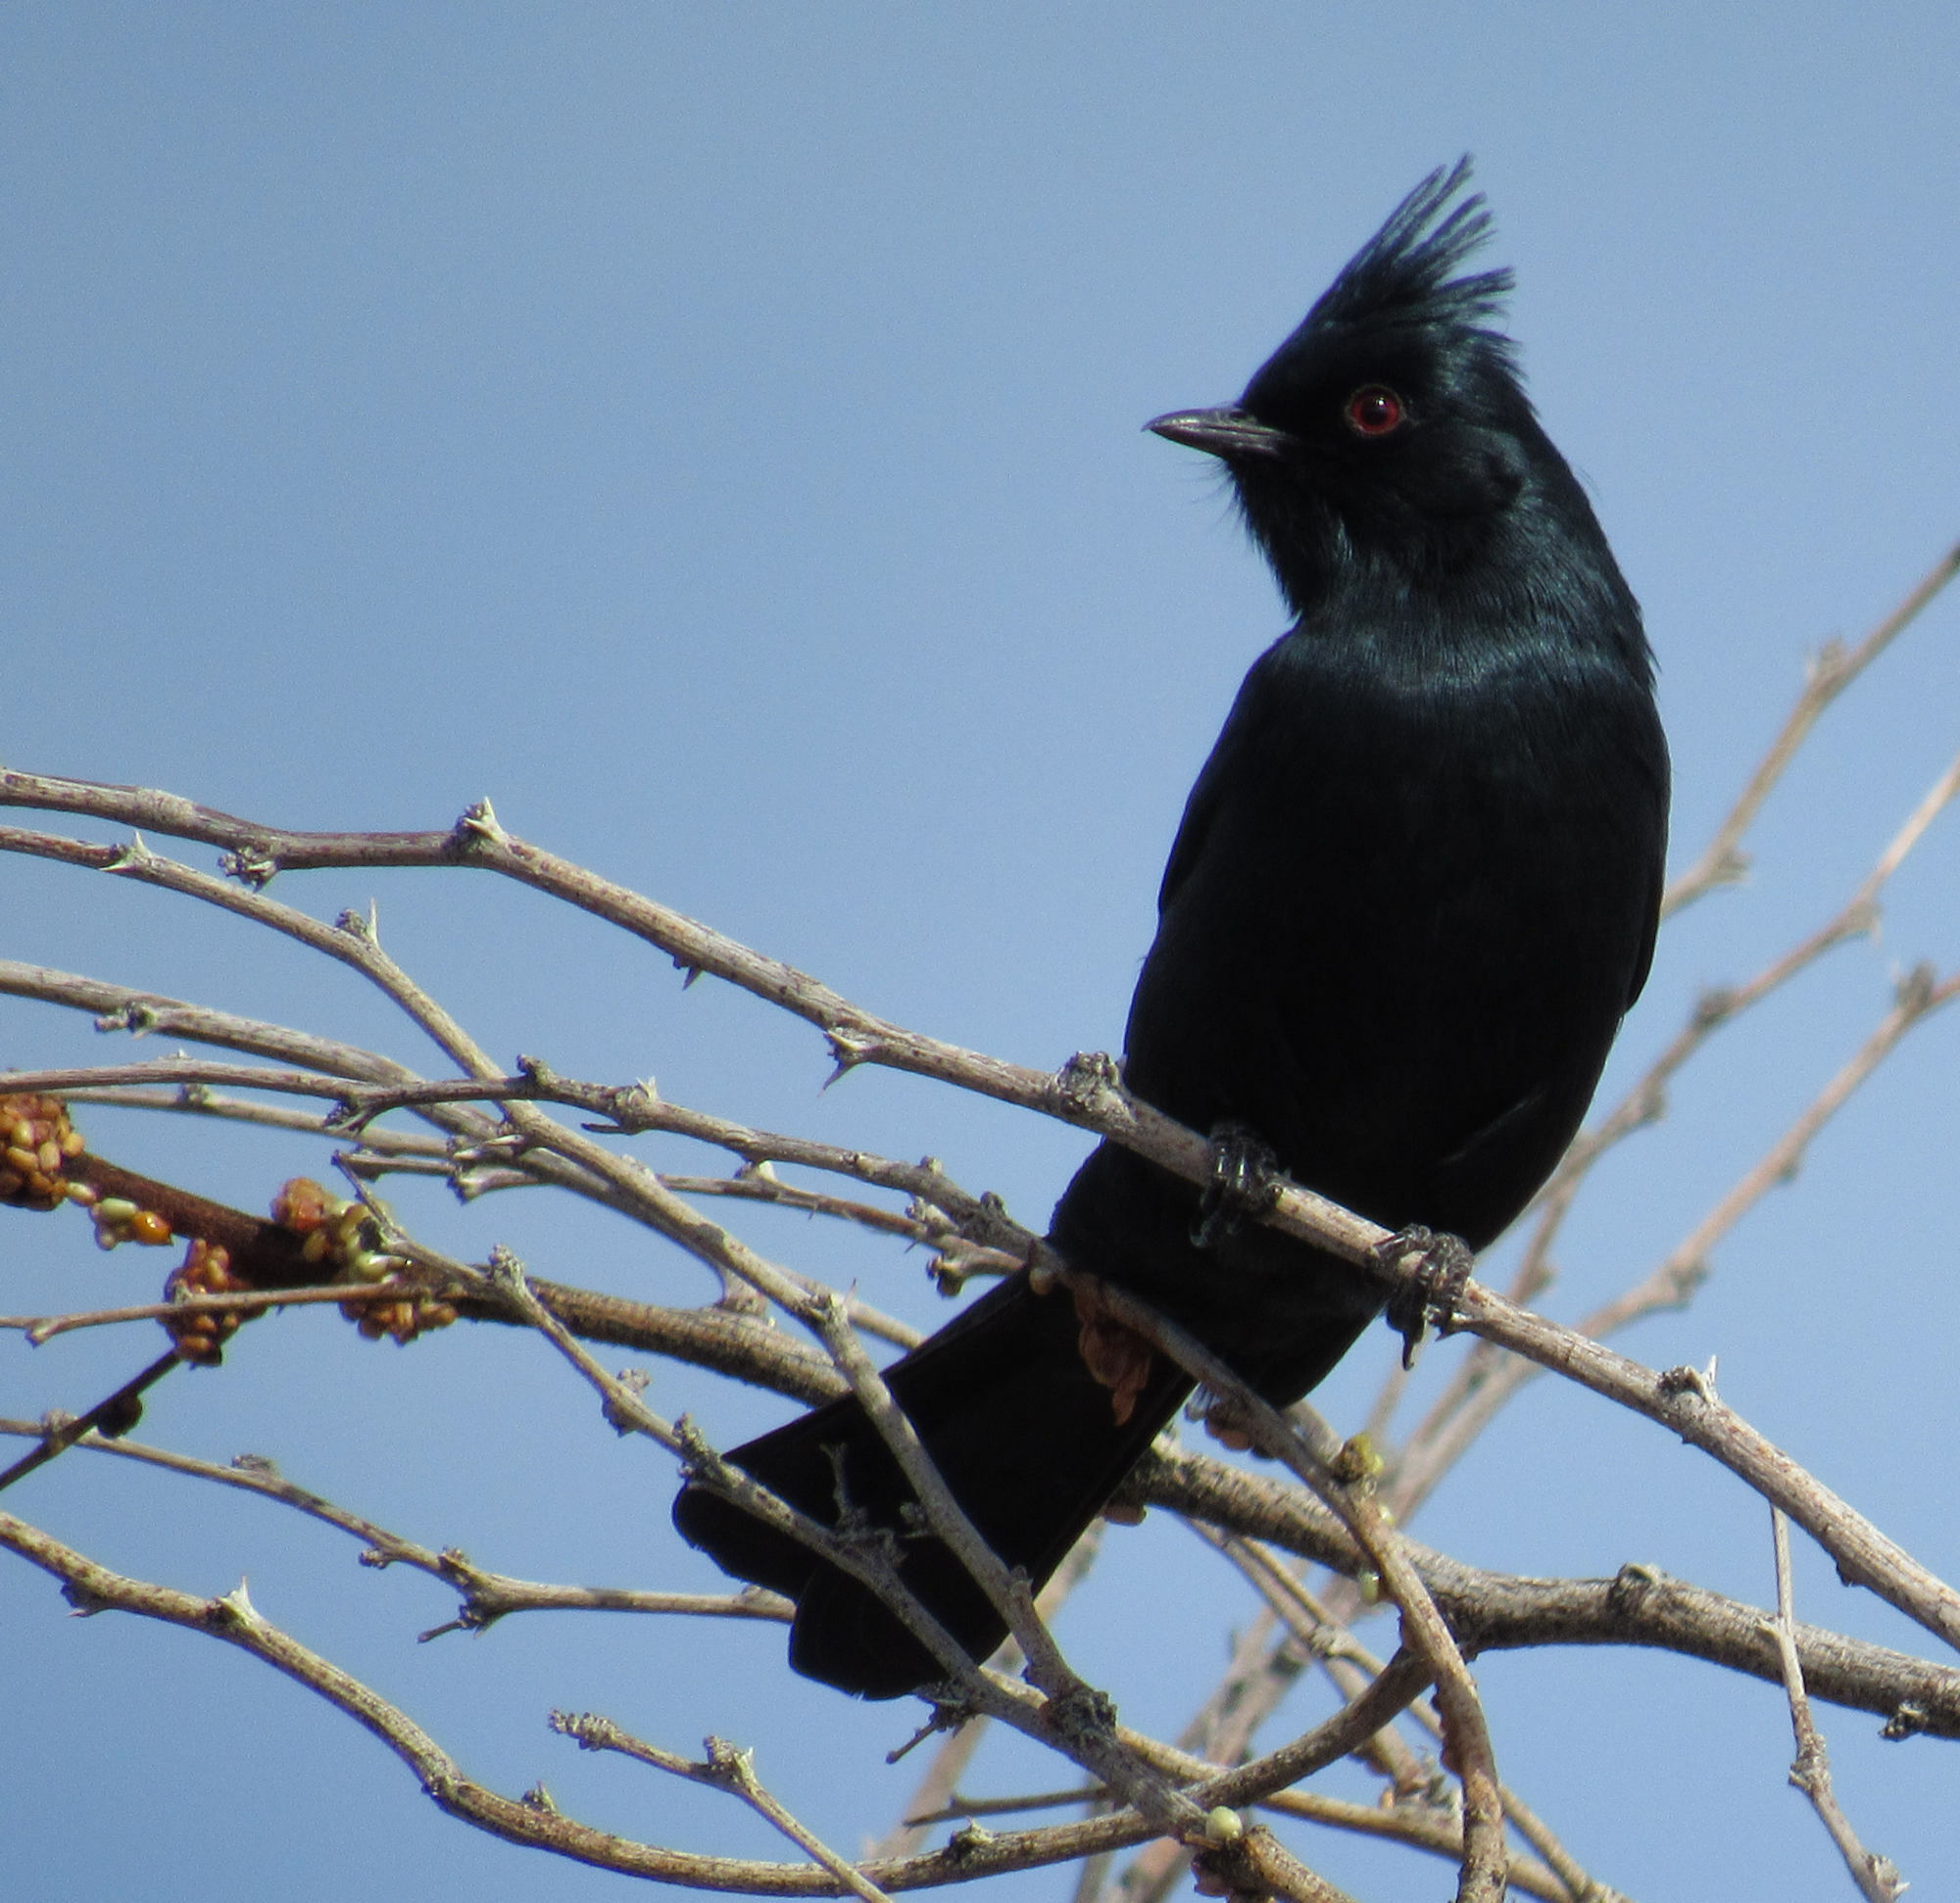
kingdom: Animalia
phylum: Chordata
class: Aves
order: Passeriformes
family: Ptilogonatidae
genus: Phainopepla
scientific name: Phainopepla nitens
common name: Phainopepla
